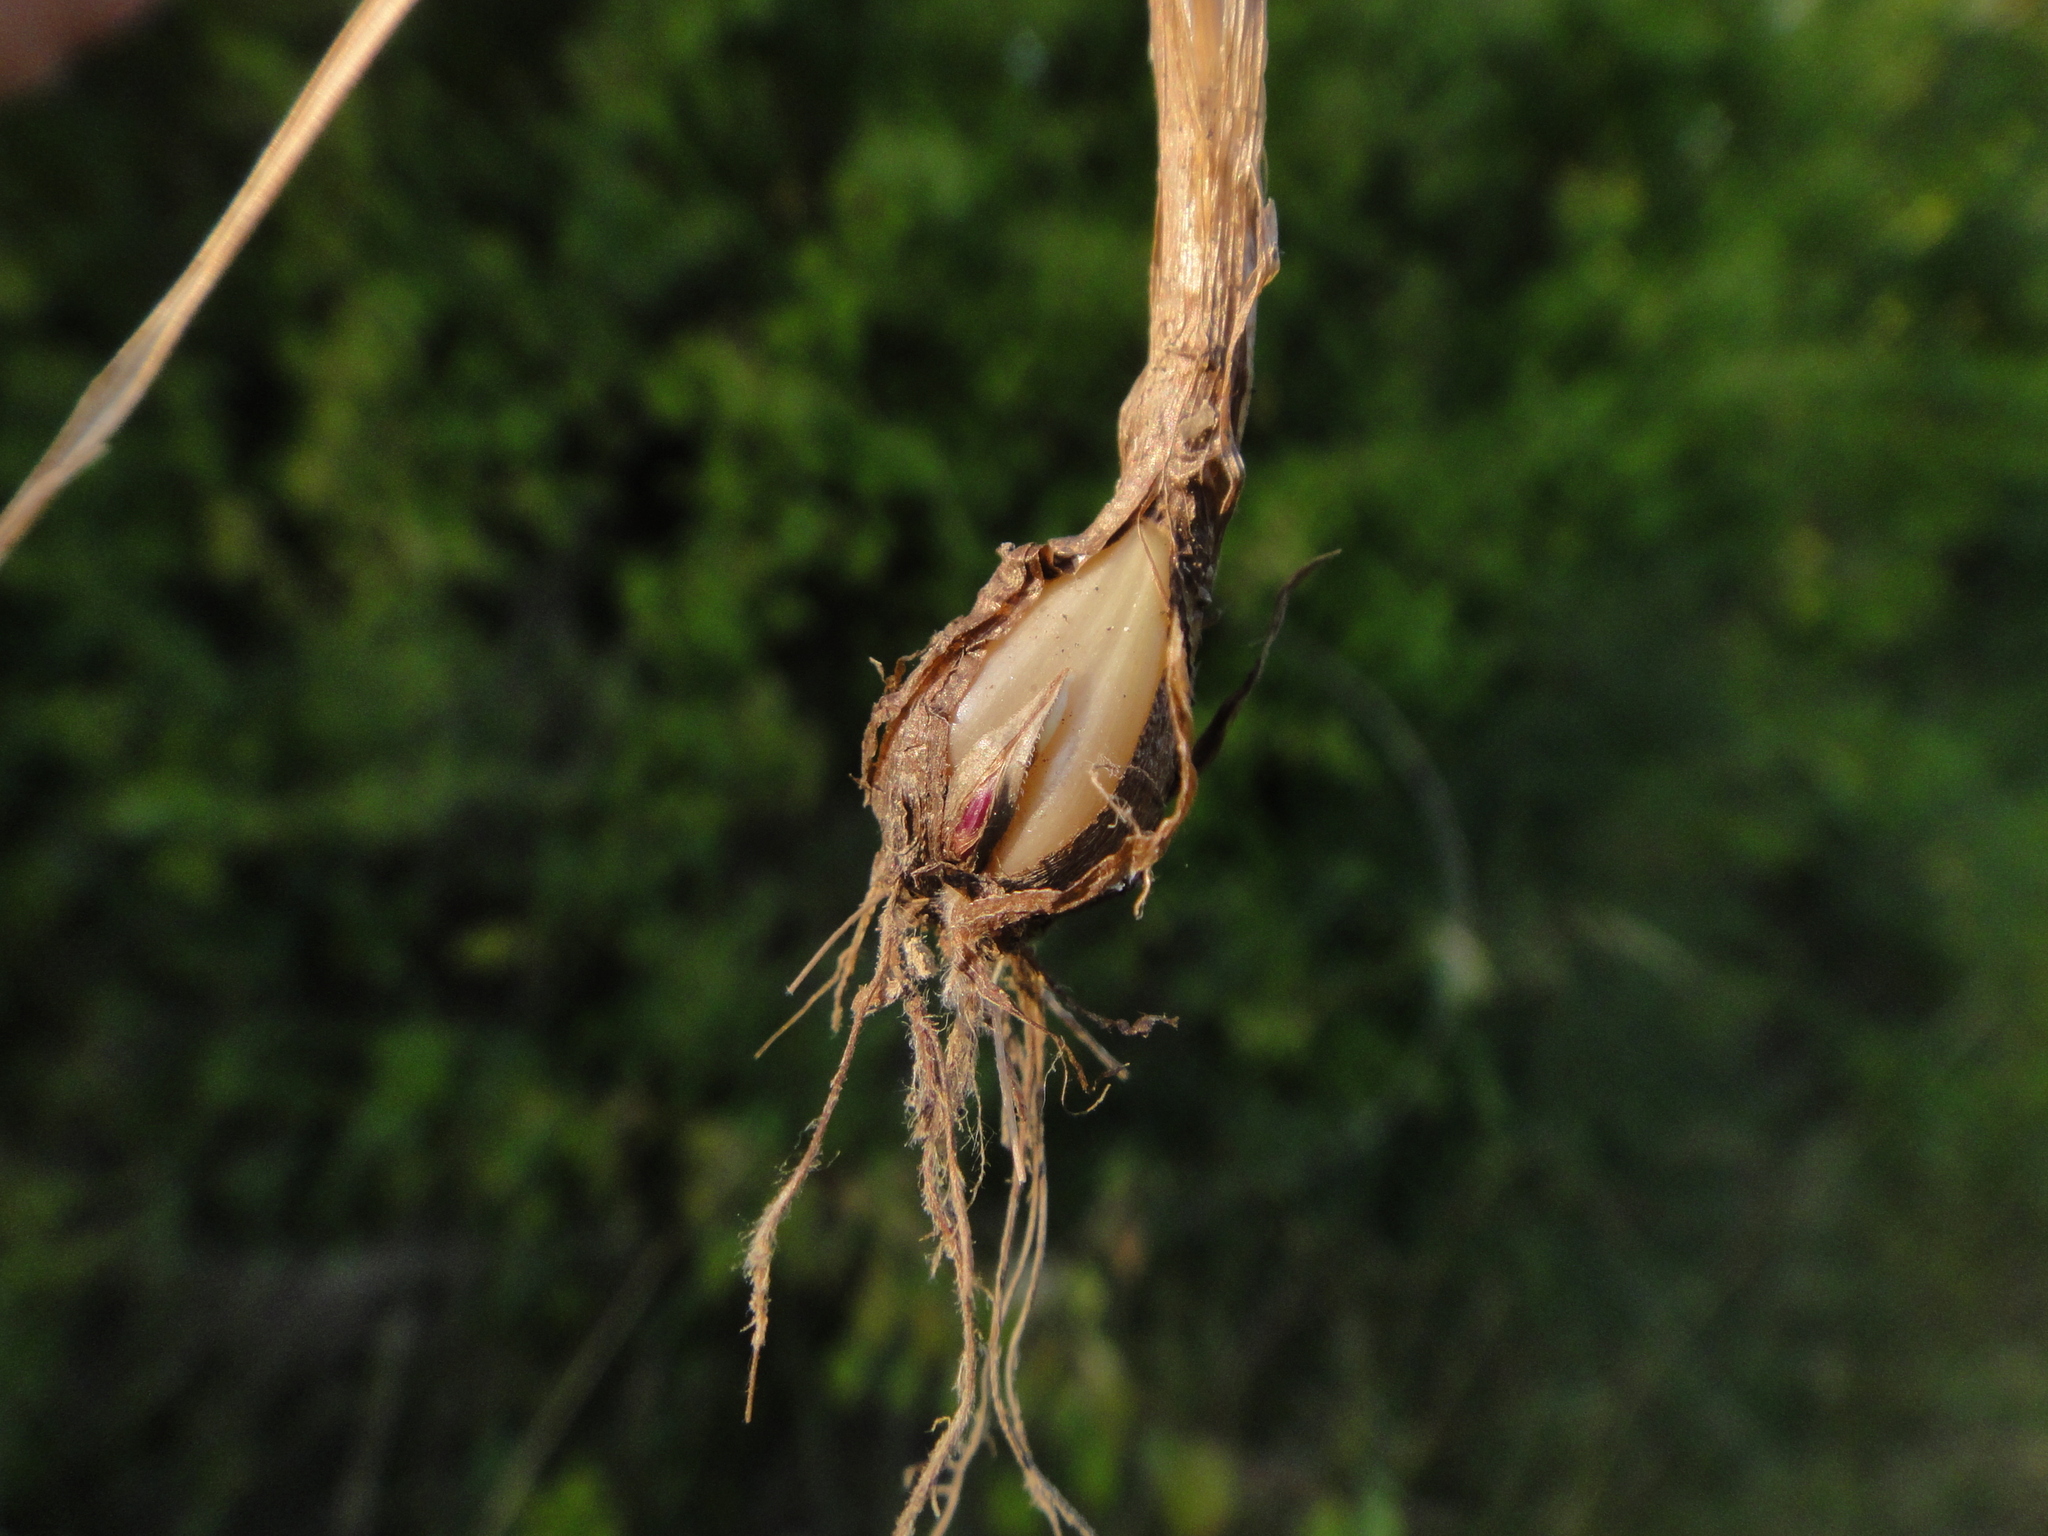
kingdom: Plantae
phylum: Tracheophyta
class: Liliopsida
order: Poales
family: Poaceae
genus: Phleum
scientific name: Phleum bertolonii
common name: Smaller cat's-tail
